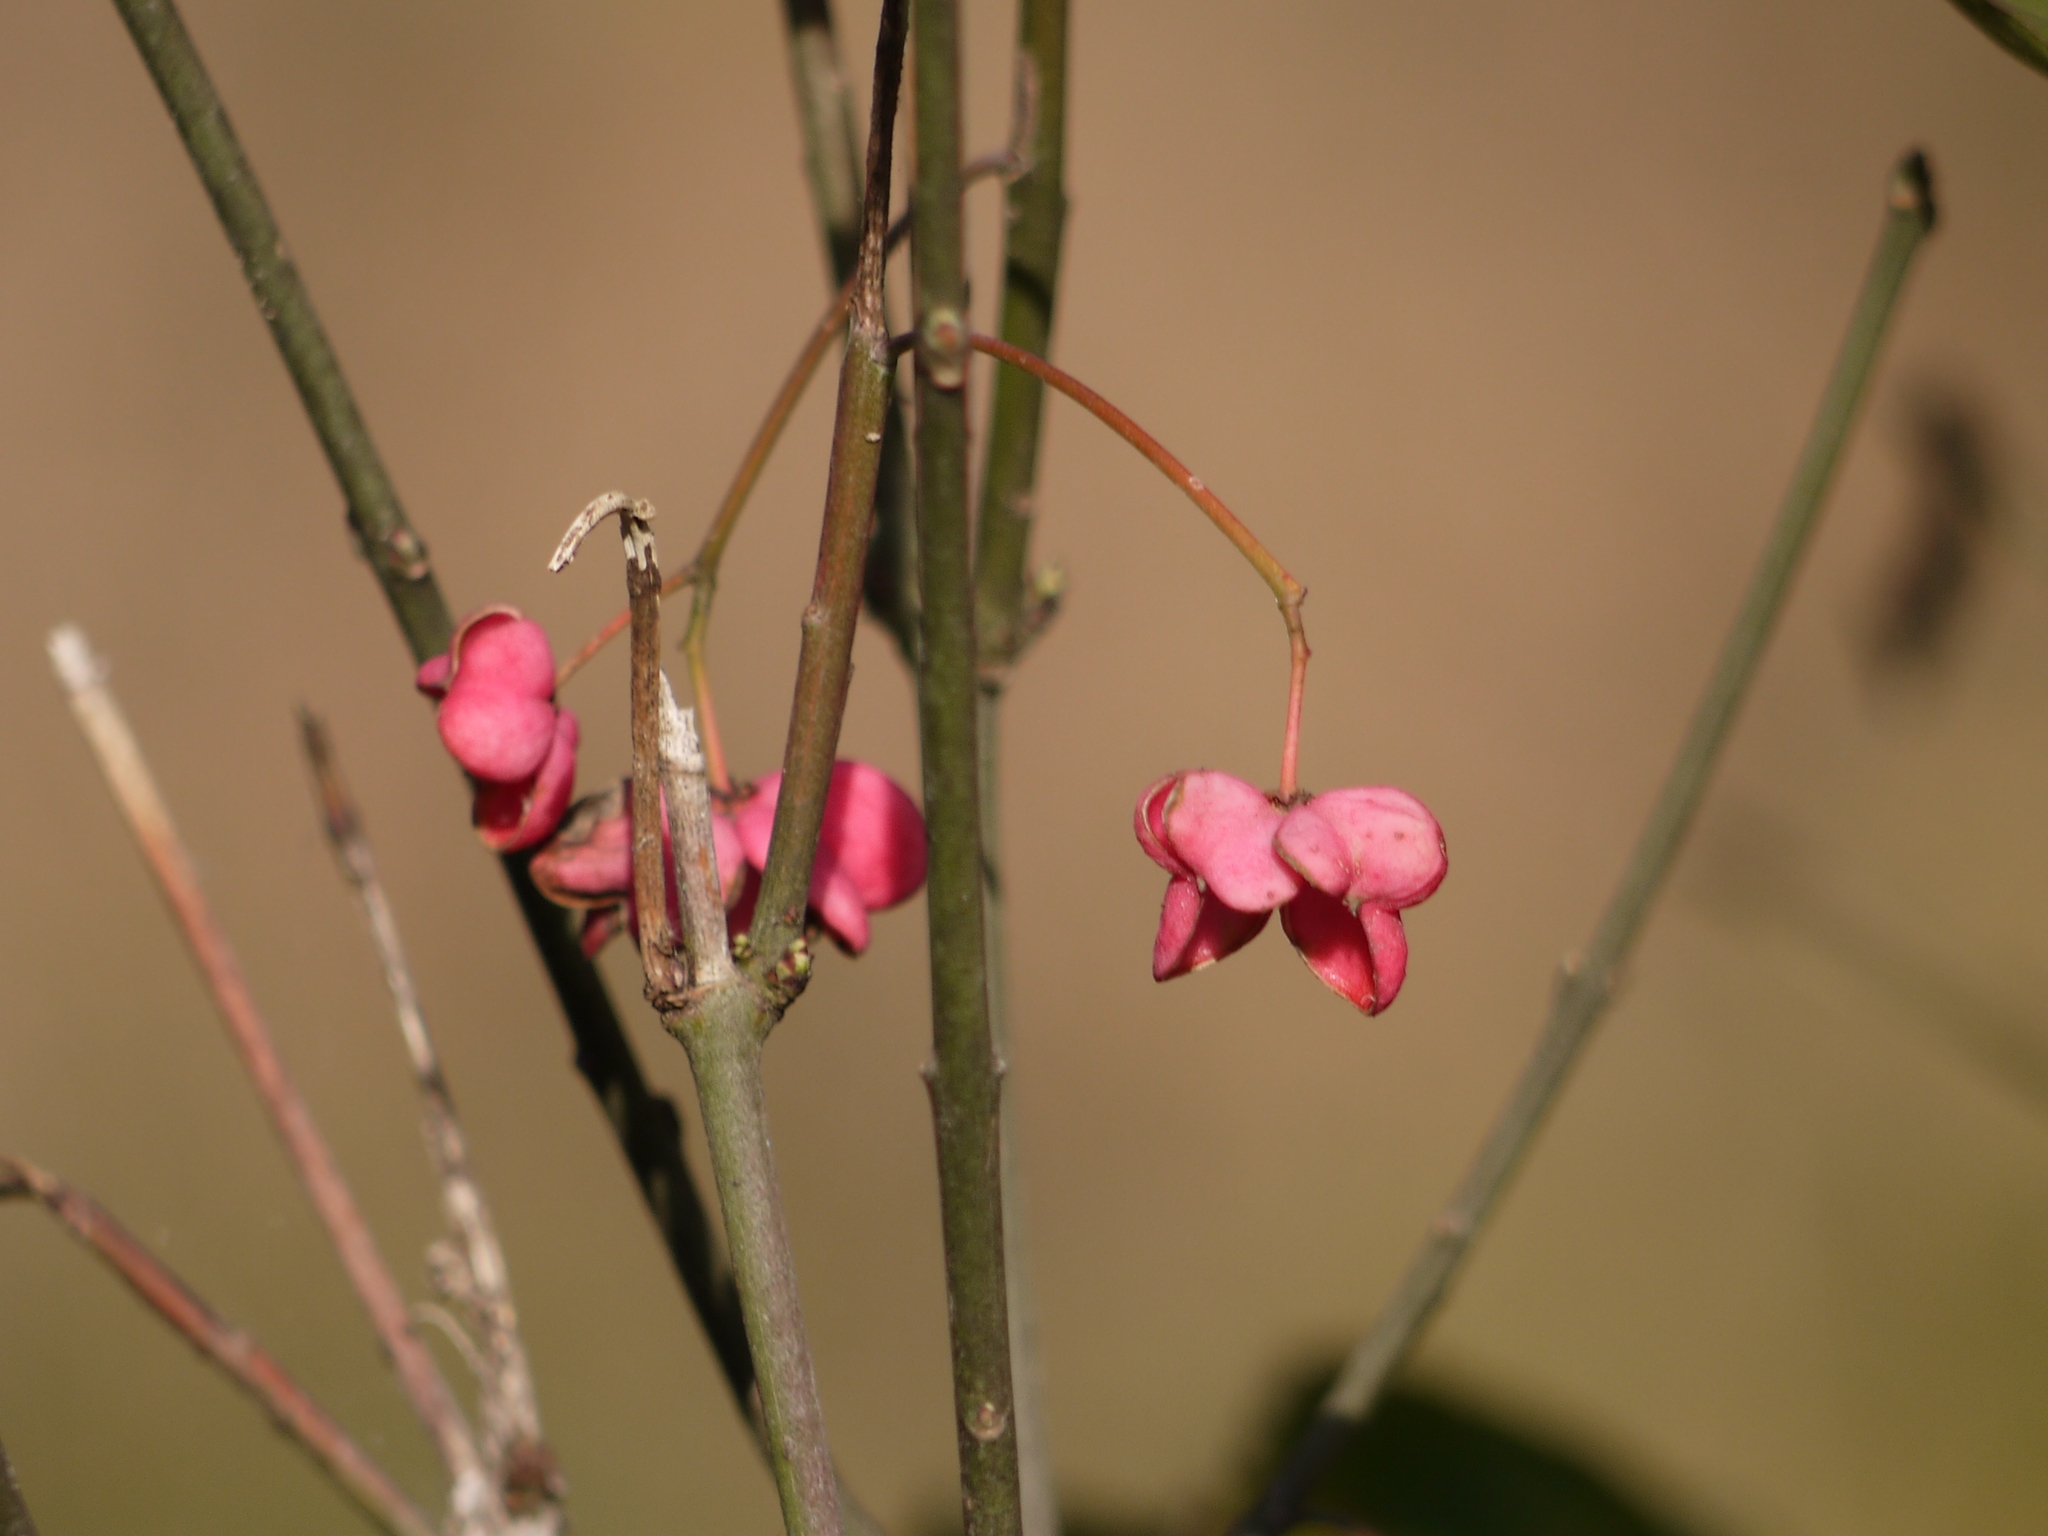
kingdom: Plantae
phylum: Tracheophyta
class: Magnoliopsida
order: Celastrales
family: Celastraceae
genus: Euonymus
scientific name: Euonymus europaeus
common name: Spindle
